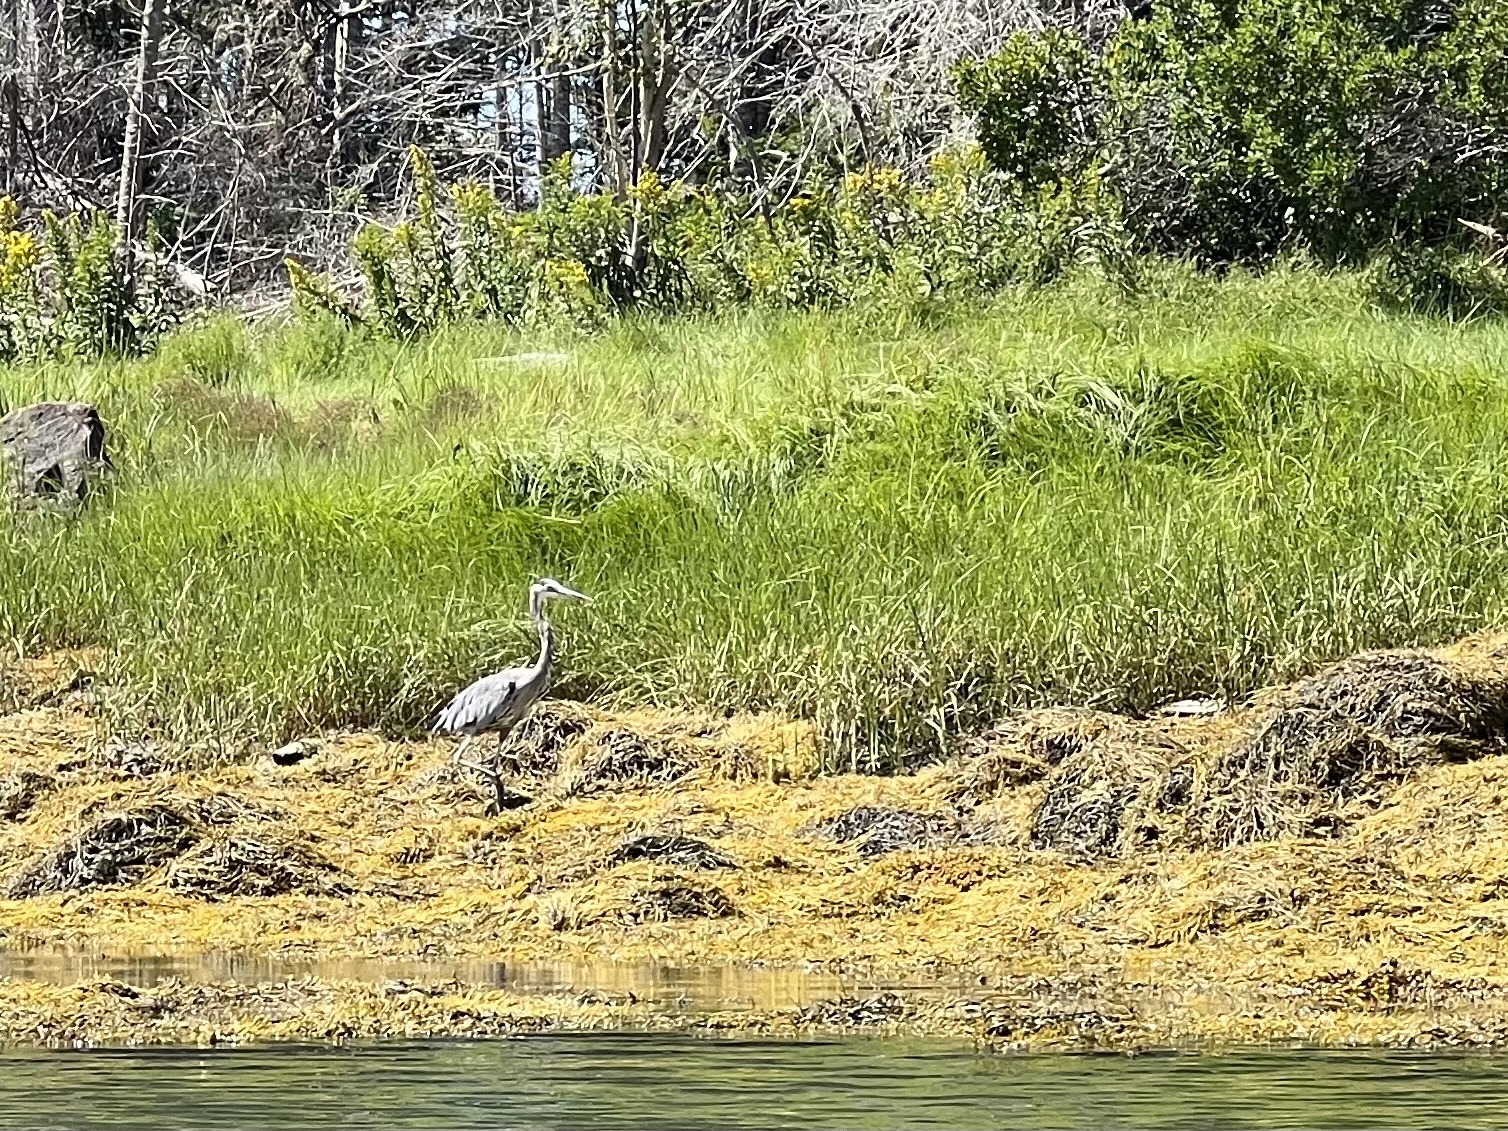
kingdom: Animalia
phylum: Chordata
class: Aves
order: Pelecaniformes
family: Ardeidae
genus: Ardea
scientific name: Ardea herodias
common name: Great blue heron
